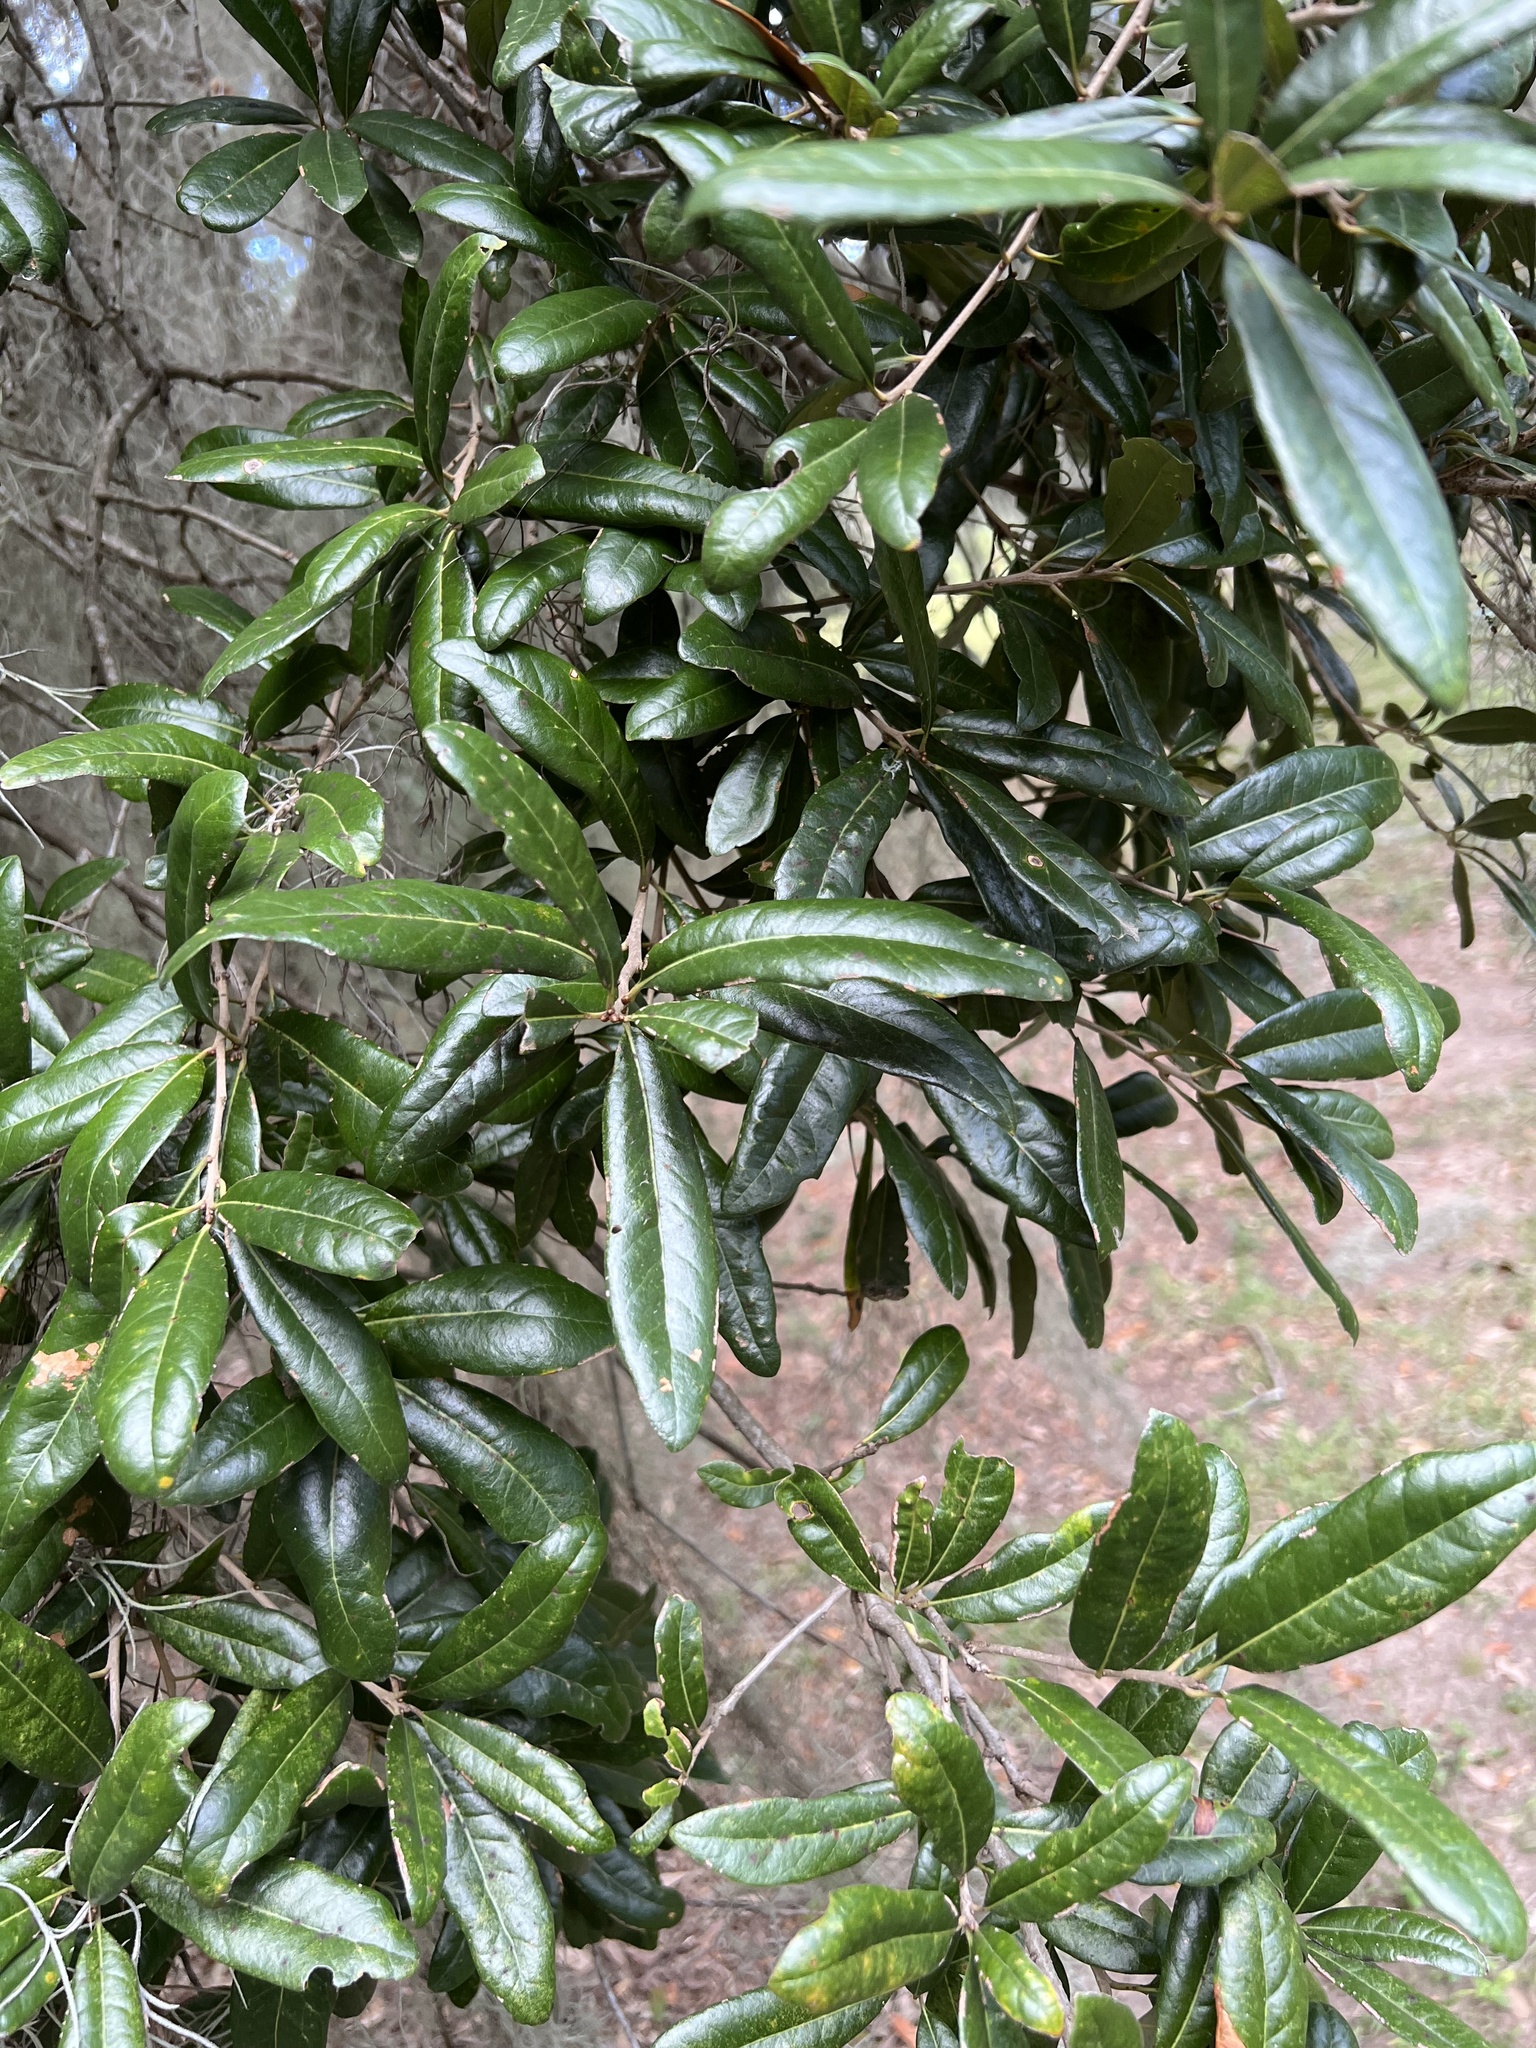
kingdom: Plantae
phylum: Tracheophyta
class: Magnoliopsida
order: Fagales
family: Fagaceae
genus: Quercus
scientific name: Quercus virginiana
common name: Southern live oak
